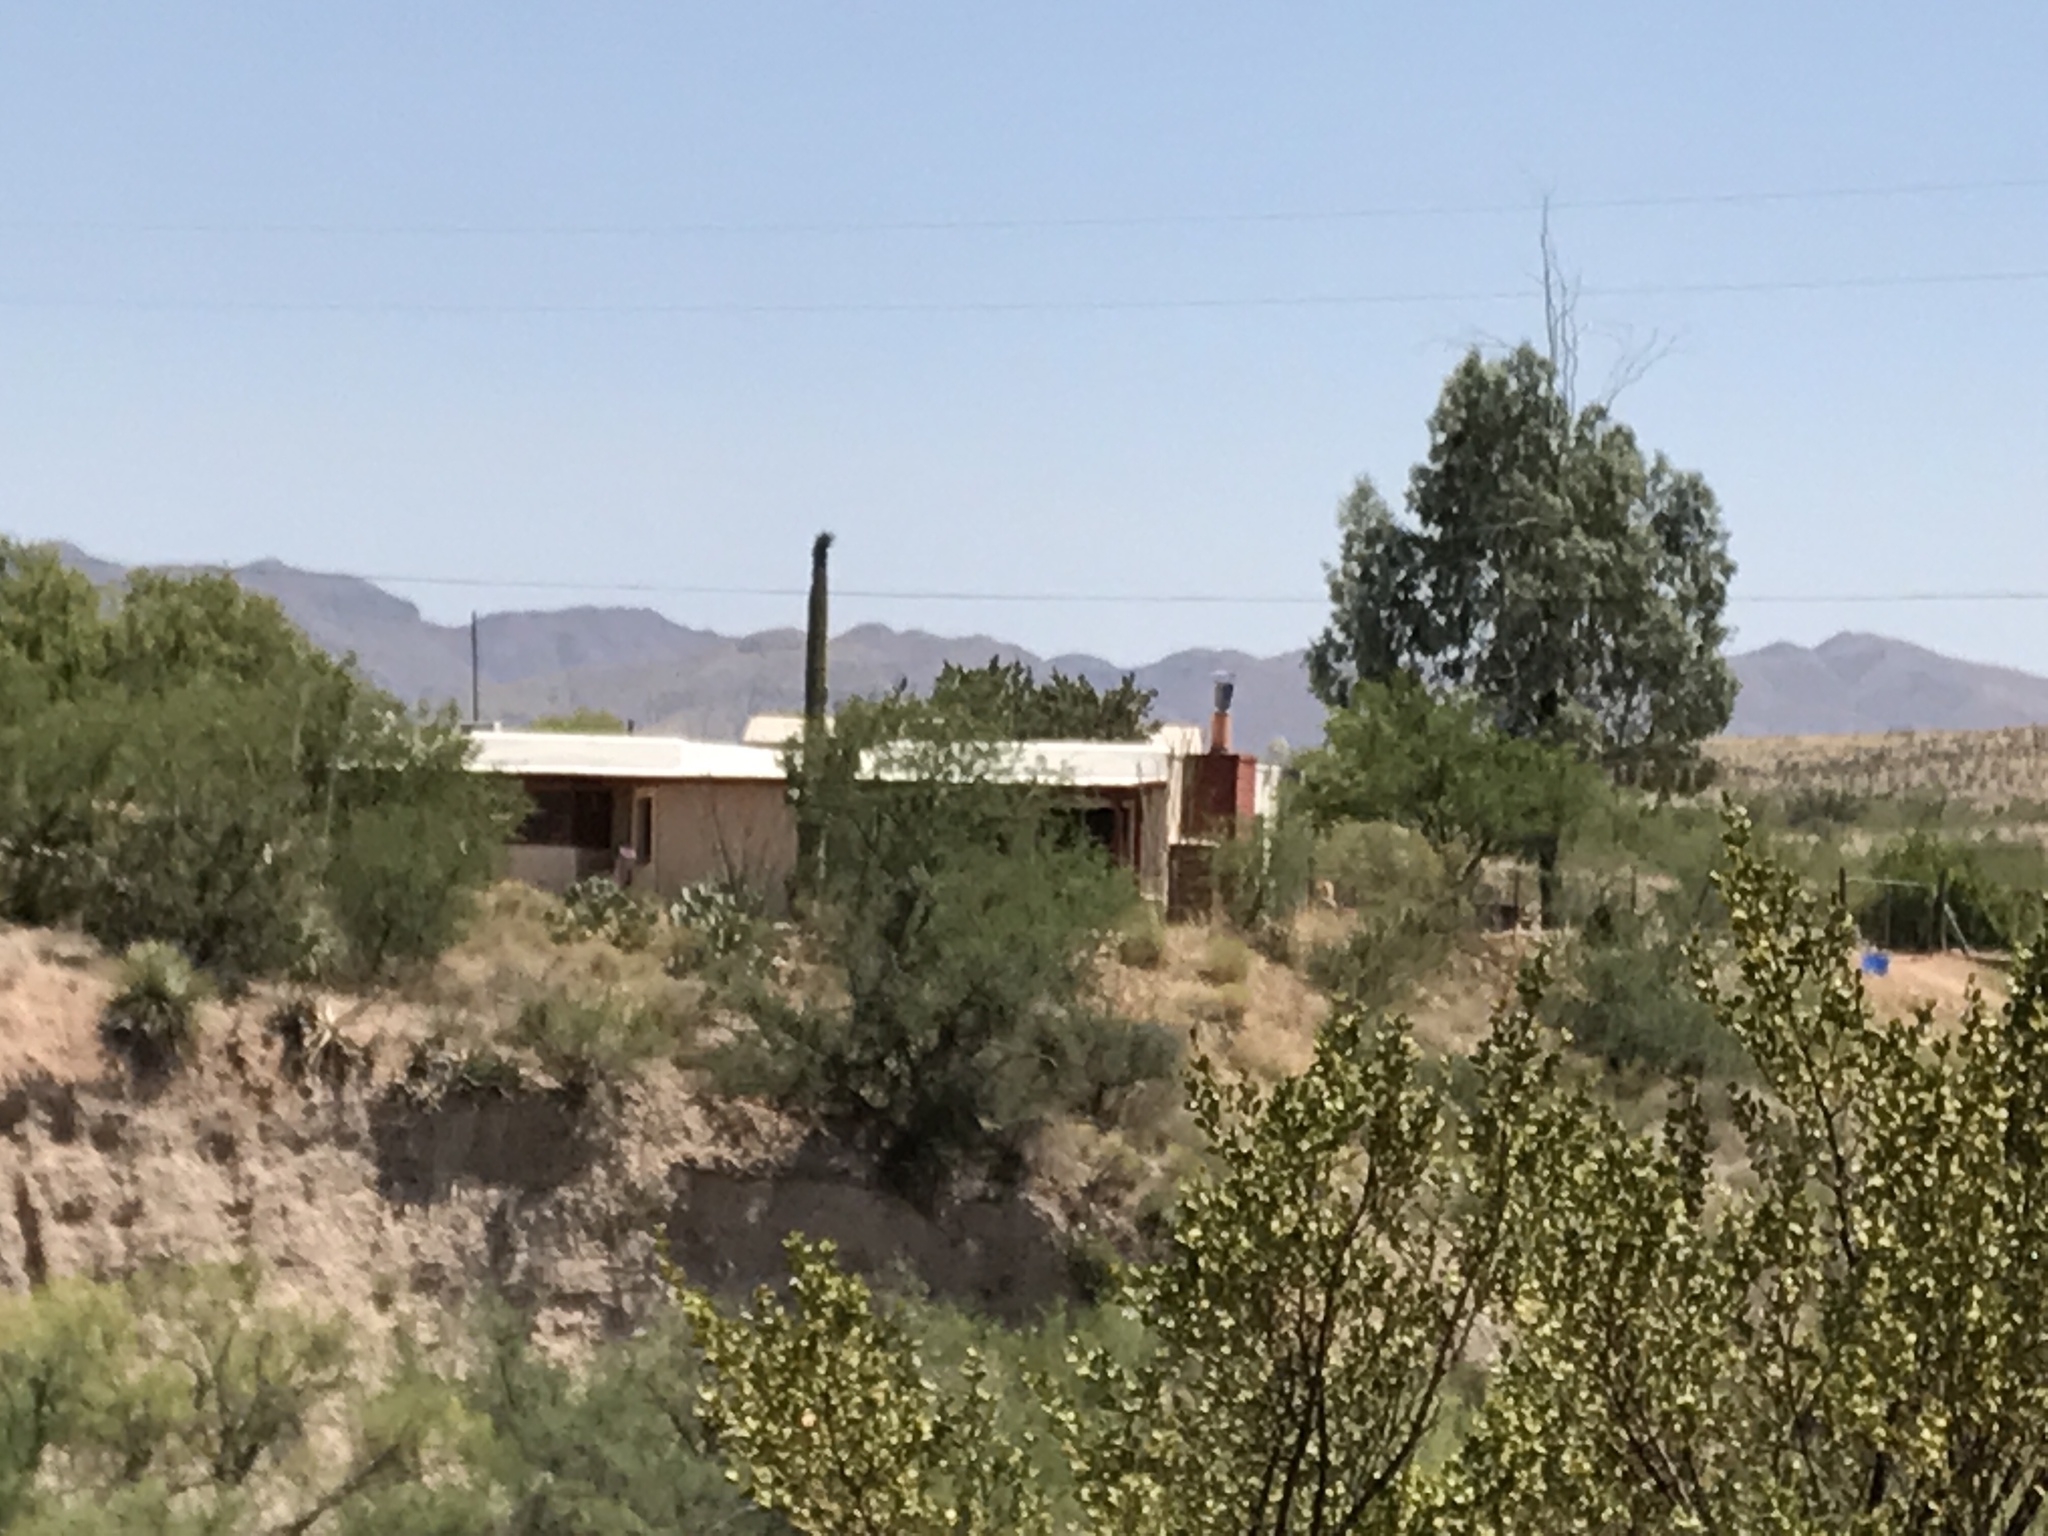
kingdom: Plantae
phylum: Tracheophyta
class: Magnoliopsida
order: Caryophyllales
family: Cactaceae
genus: Carnegiea
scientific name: Carnegiea gigantea
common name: Saguaro
